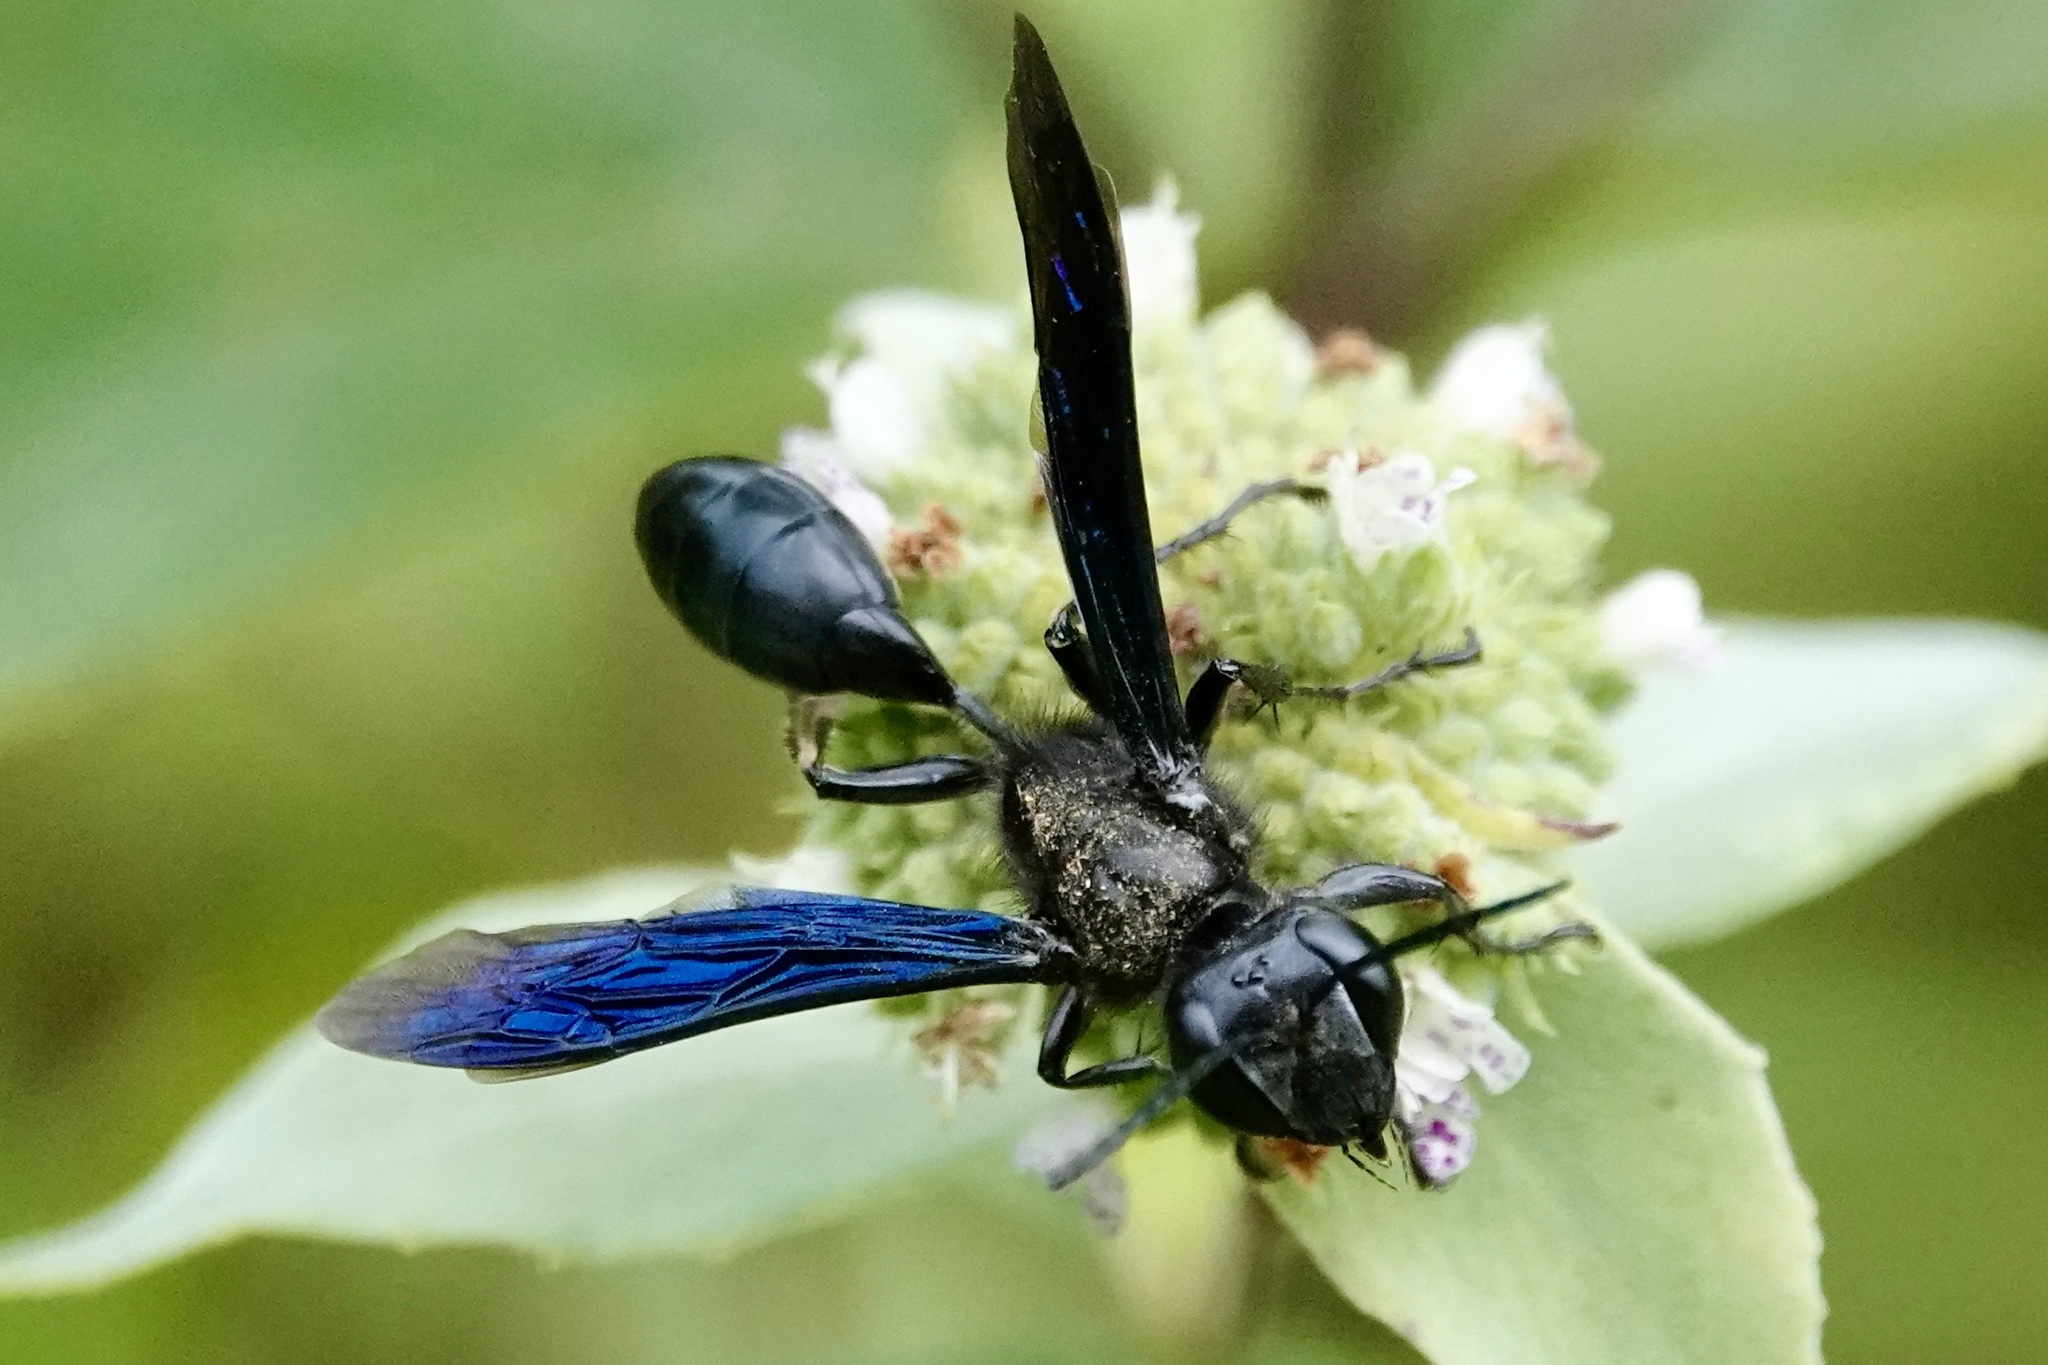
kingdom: Animalia
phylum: Arthropoda
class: Insecta
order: Hymenoptera
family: Sphecidae
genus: Isodontia
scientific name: Isodontia philadelphica
